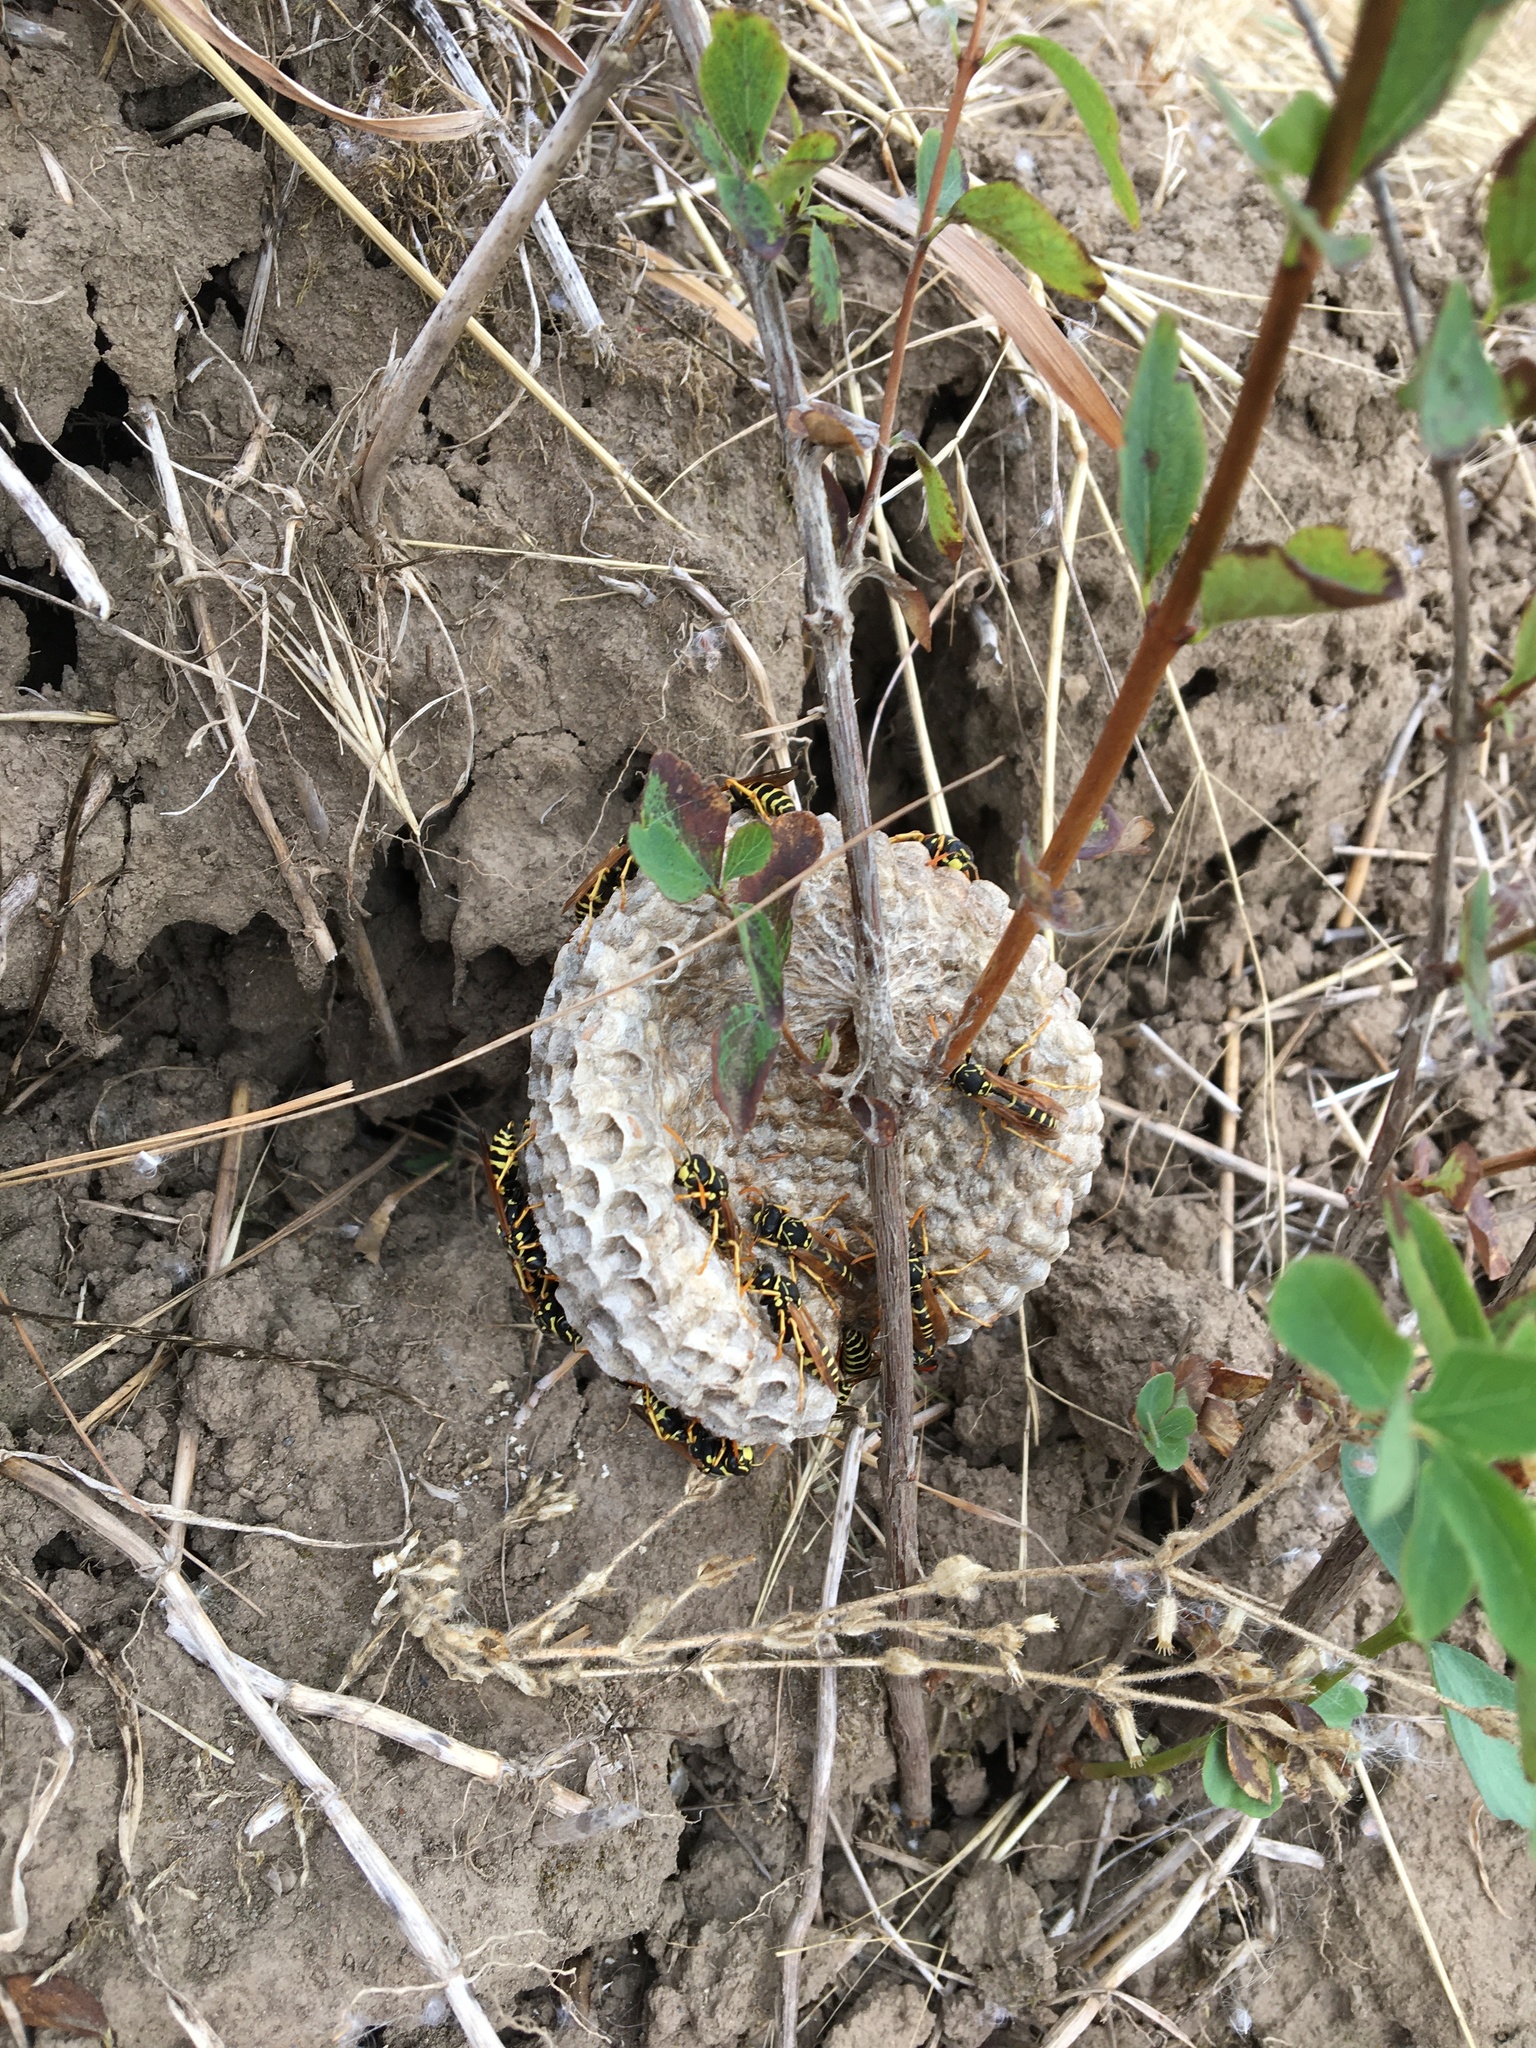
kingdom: Animalia
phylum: Arthropoda
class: Insecta
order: Hymenoptera
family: Eumenidae
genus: Polistes
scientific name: Polistes dominula
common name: Paper wasp
